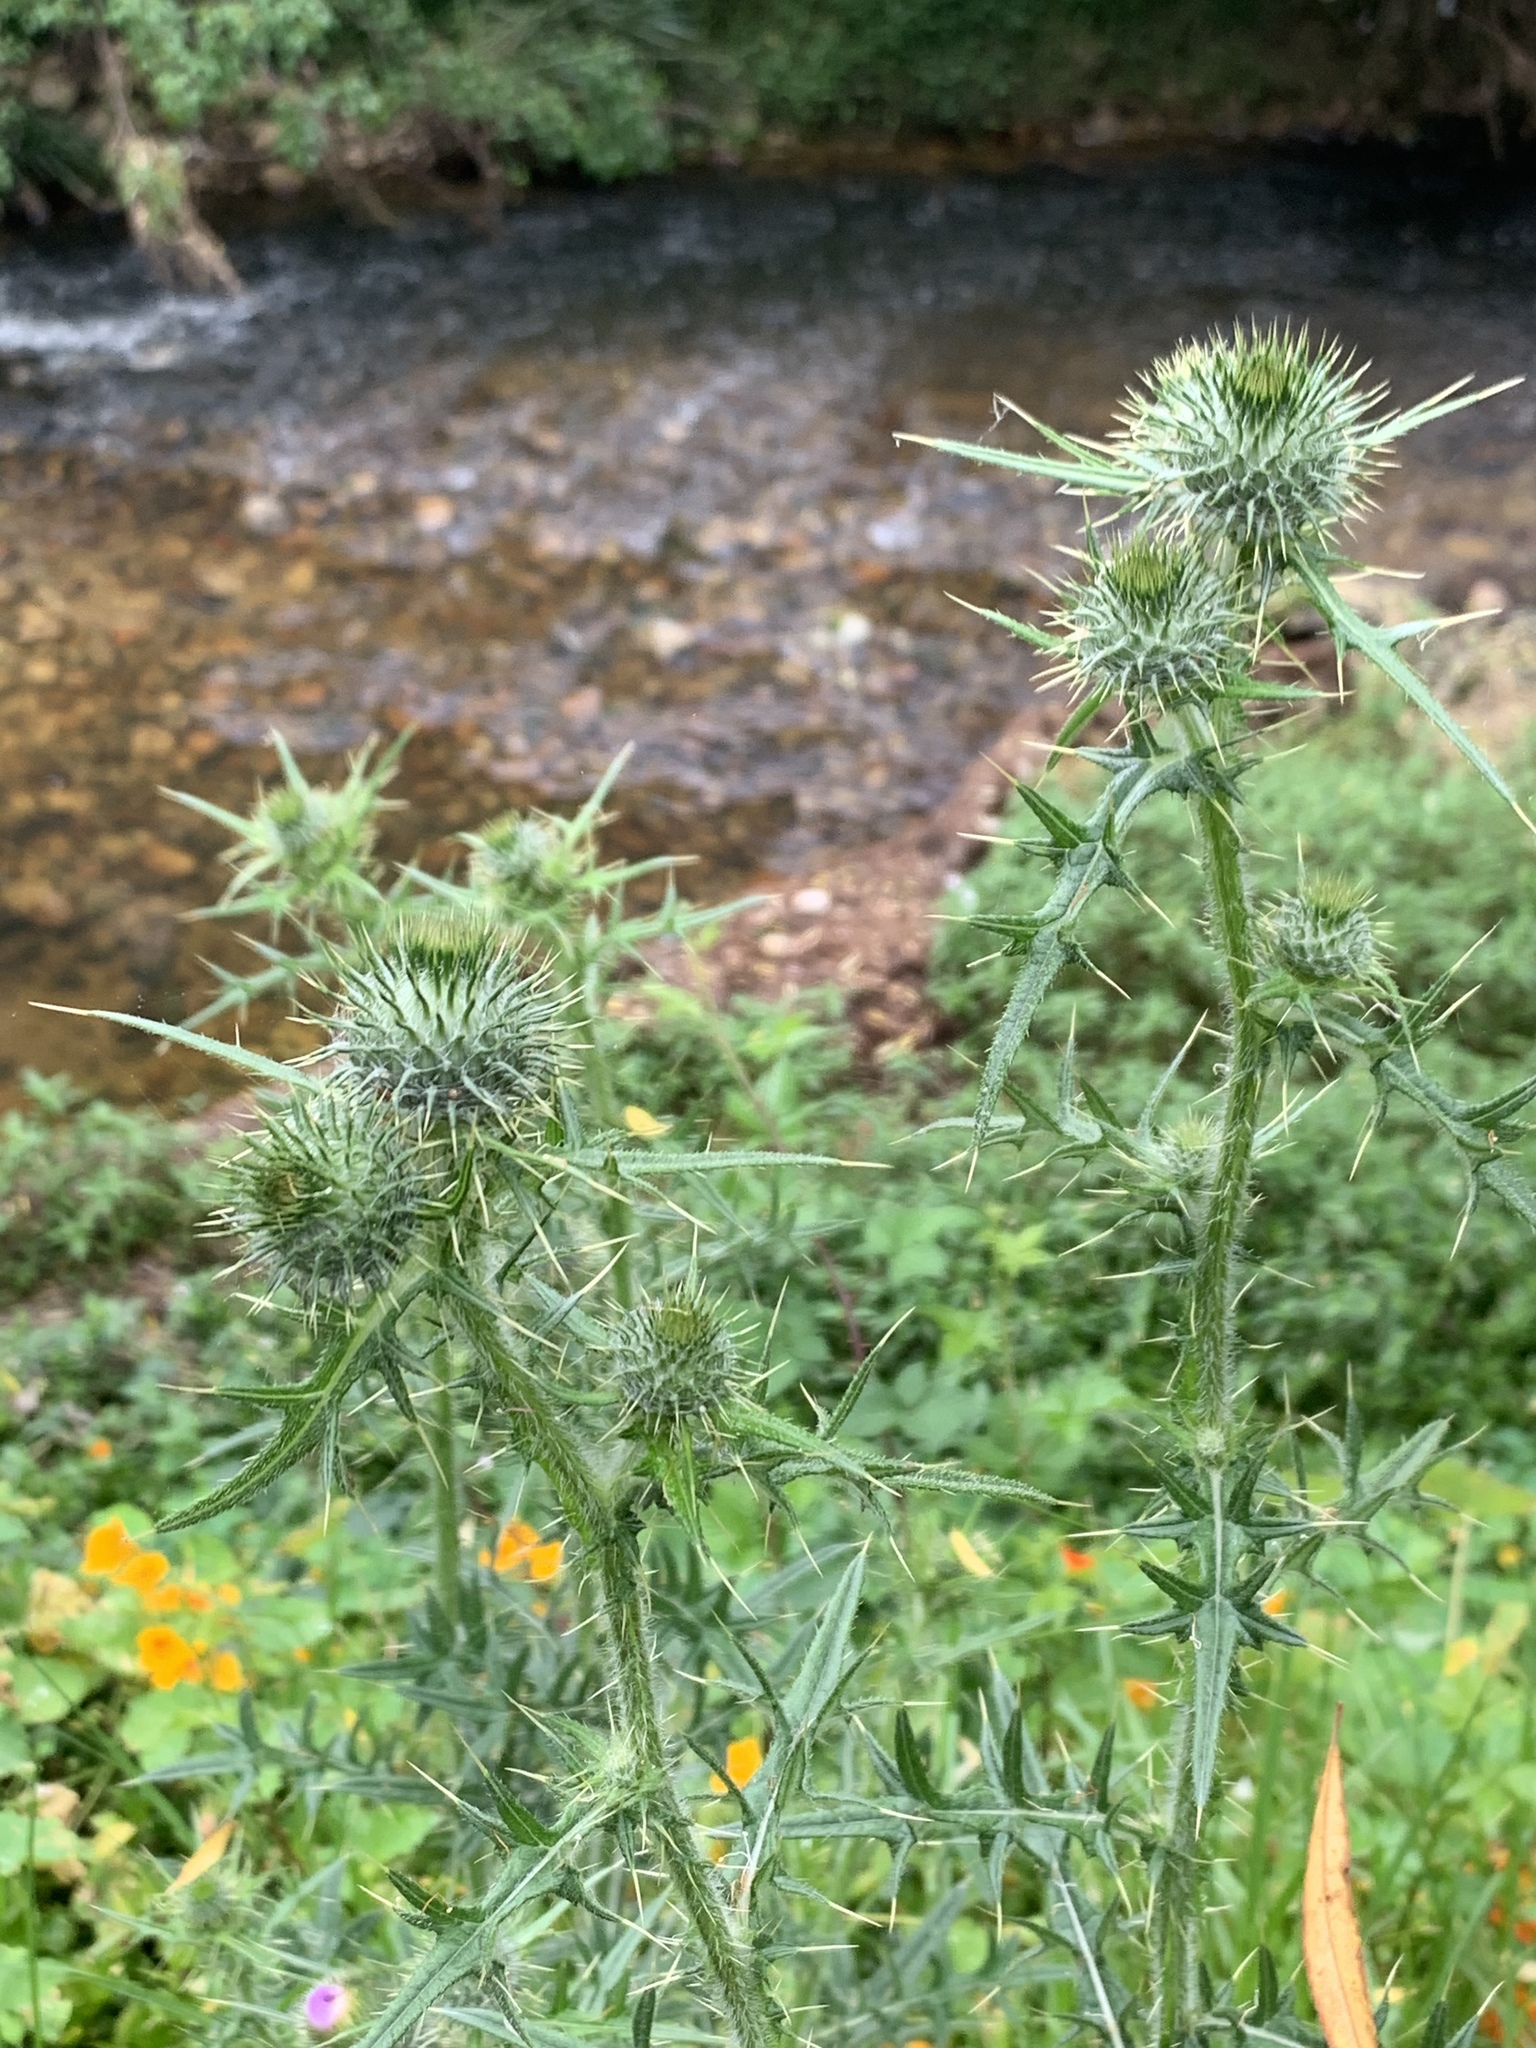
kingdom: Plantae
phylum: Tracheophyta
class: Magnoliopsida
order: Asterales
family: Asteraceae
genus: Cirsium
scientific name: Cirsium vulgare
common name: Bull thistle
